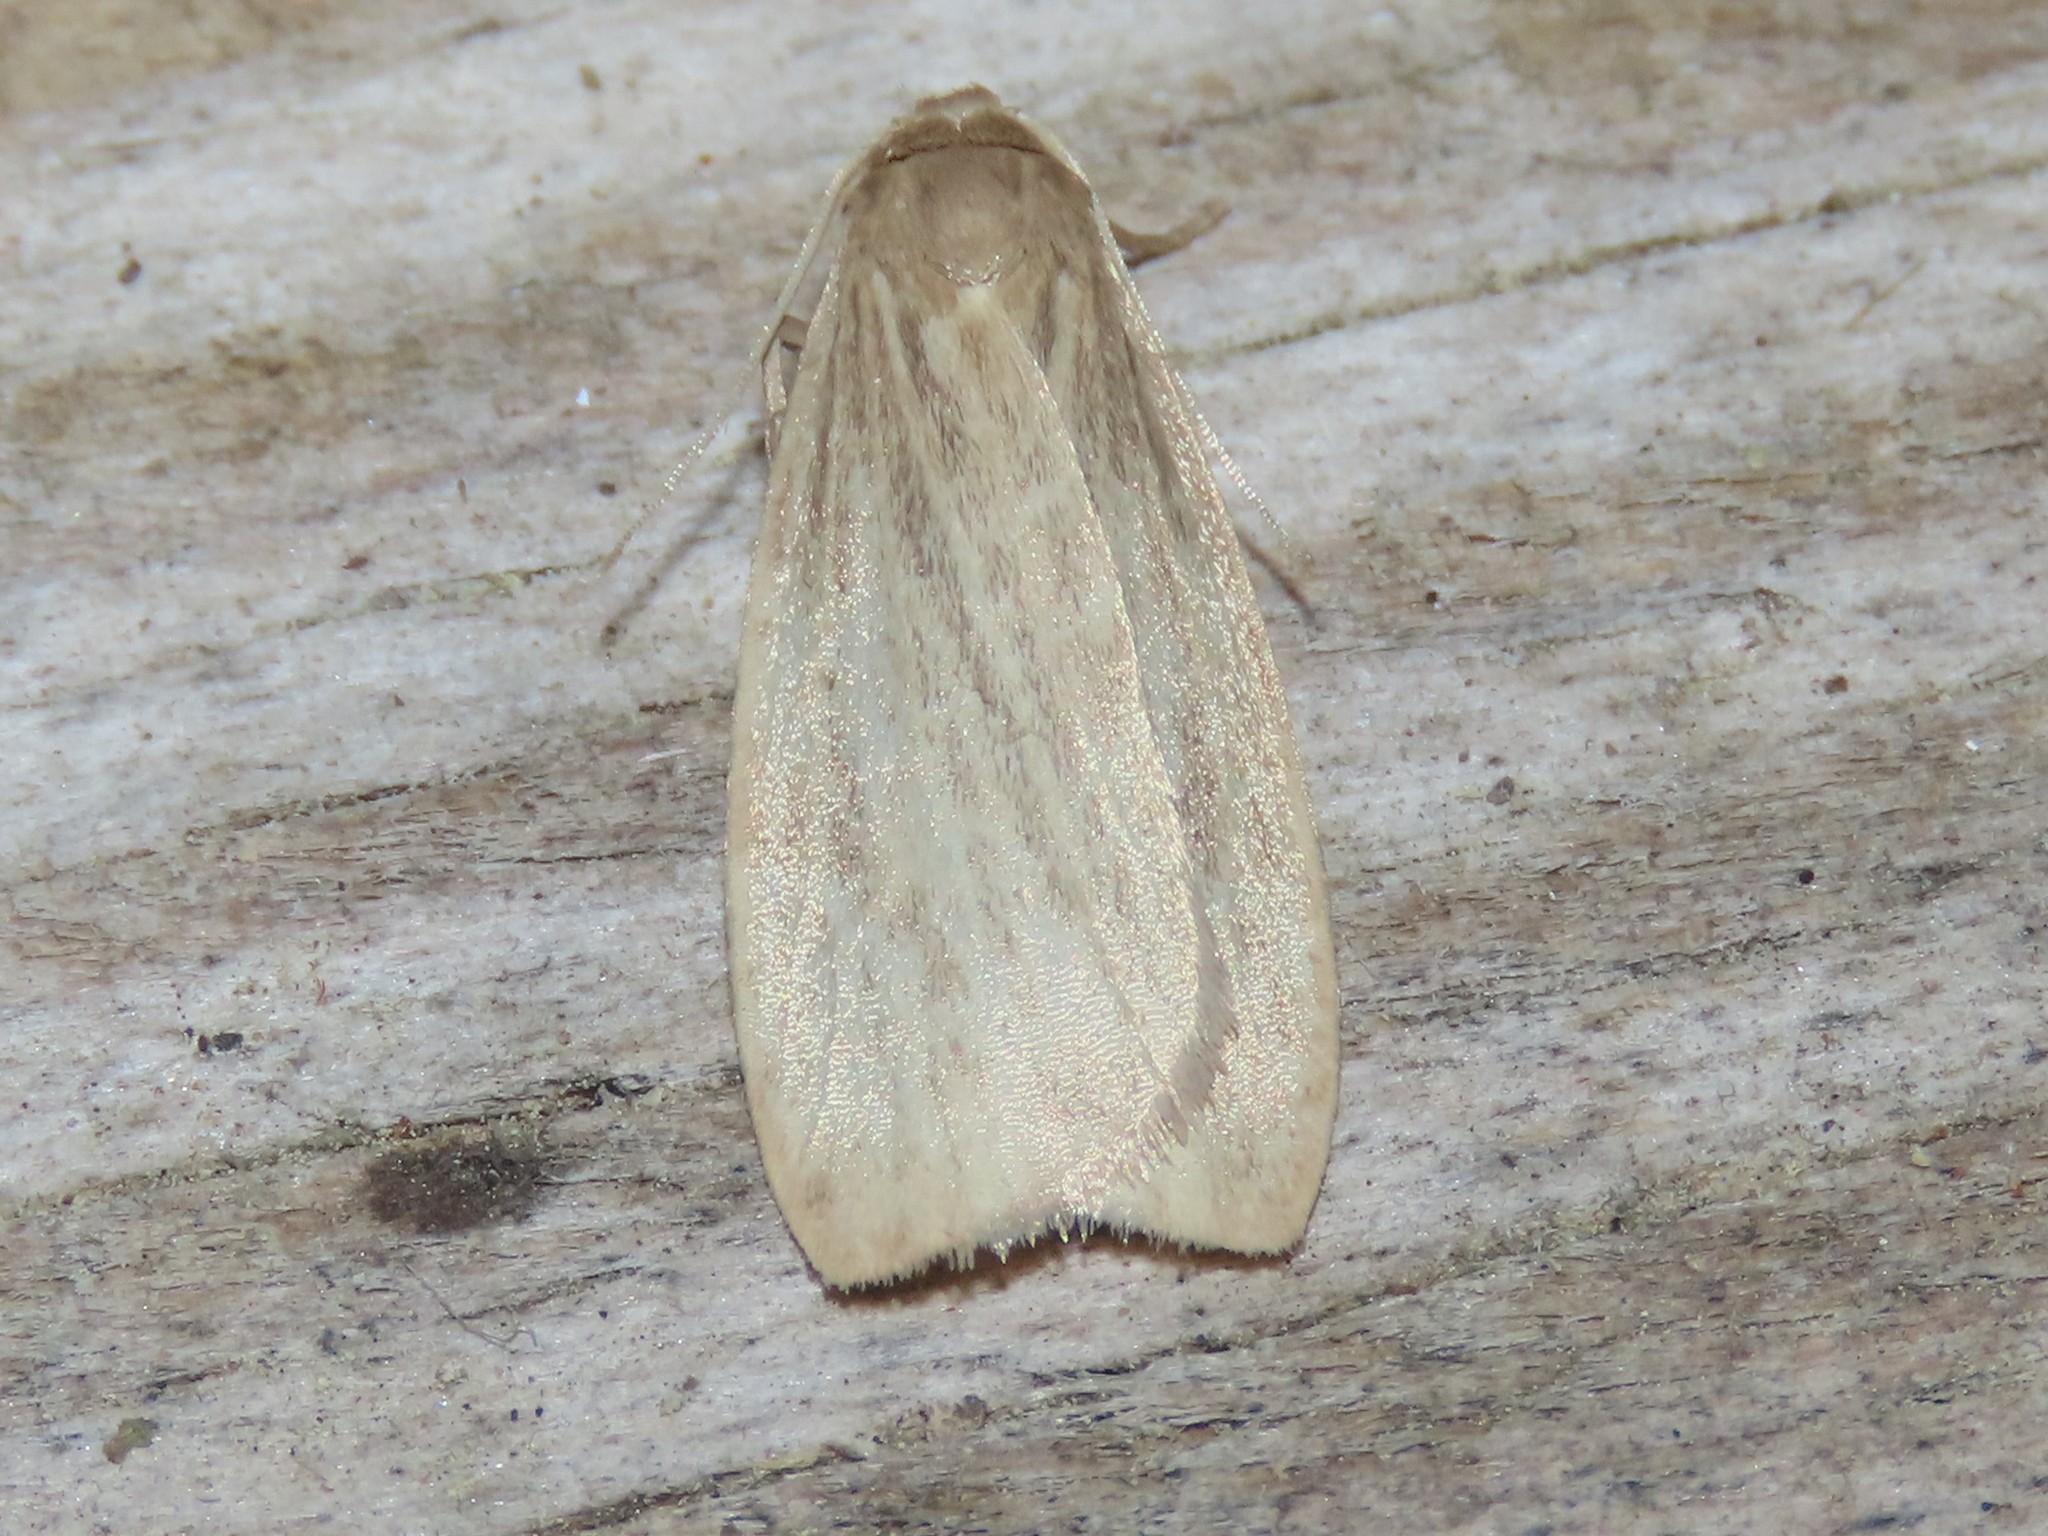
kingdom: Animalia
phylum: Arthropoda
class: Insecta
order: Lepidoptera
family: Erebidae
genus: Crambidia
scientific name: Crambidia pallida
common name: Pale lichen moth
